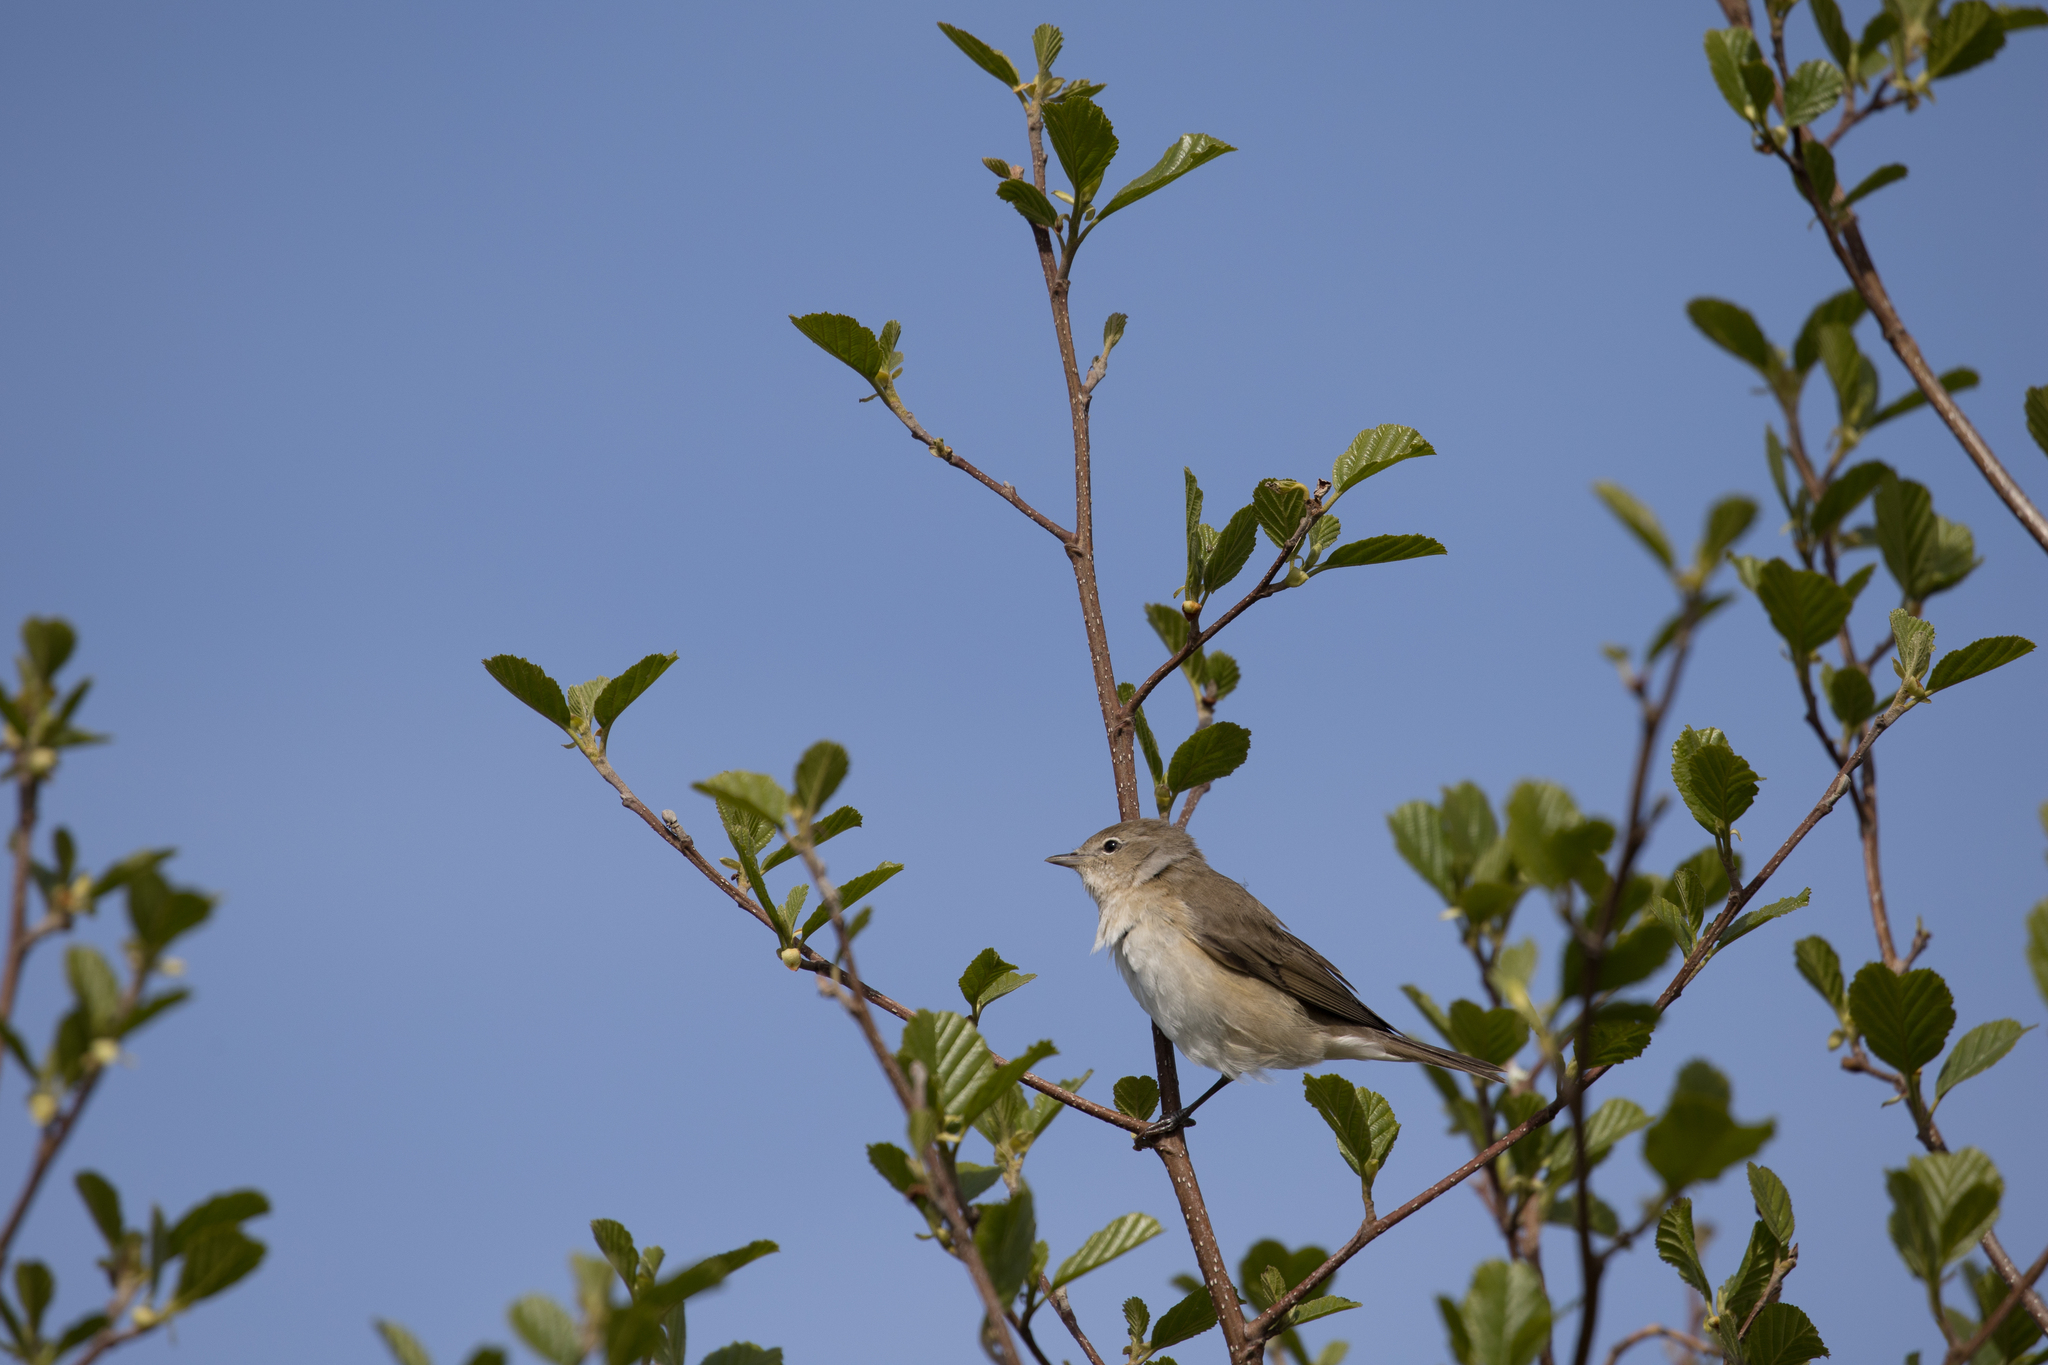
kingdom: Animalia
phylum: Chordata
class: Aves
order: Passeriformes
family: Sylviidae
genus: Sylvia
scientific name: Sylvia borin
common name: Garden warbler
